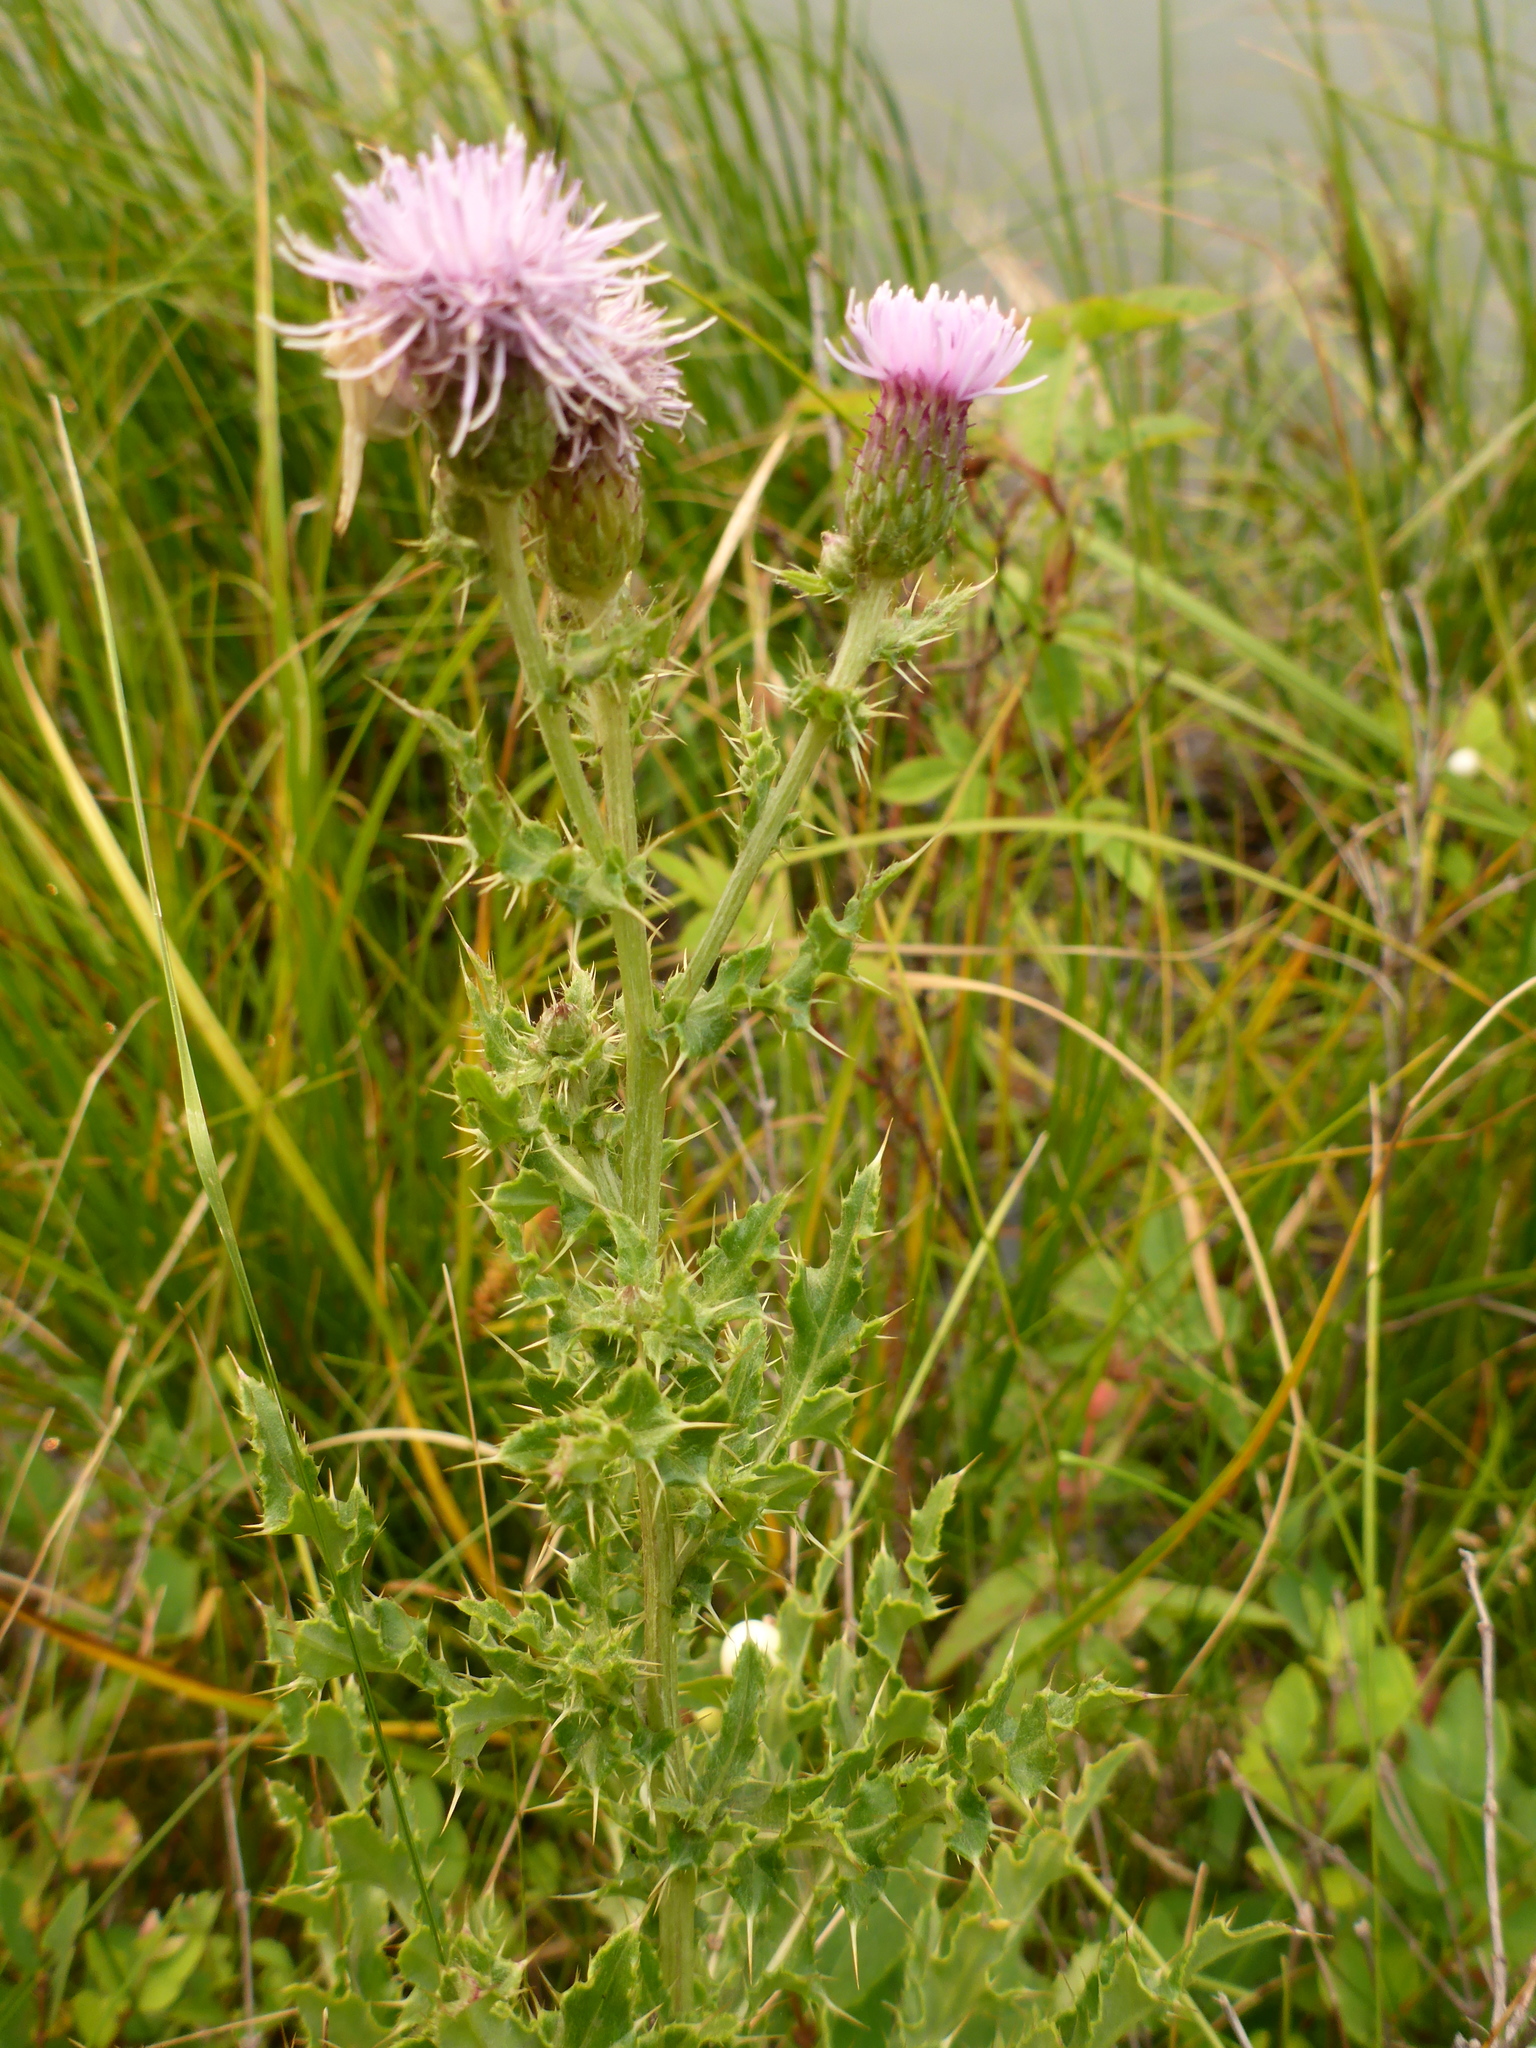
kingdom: Plantae
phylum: Tracheophyta
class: Magnoliopsida
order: Asterales
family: Asteraceae
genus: Cirsium
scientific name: Cirsium arvense
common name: Creeping thistle
